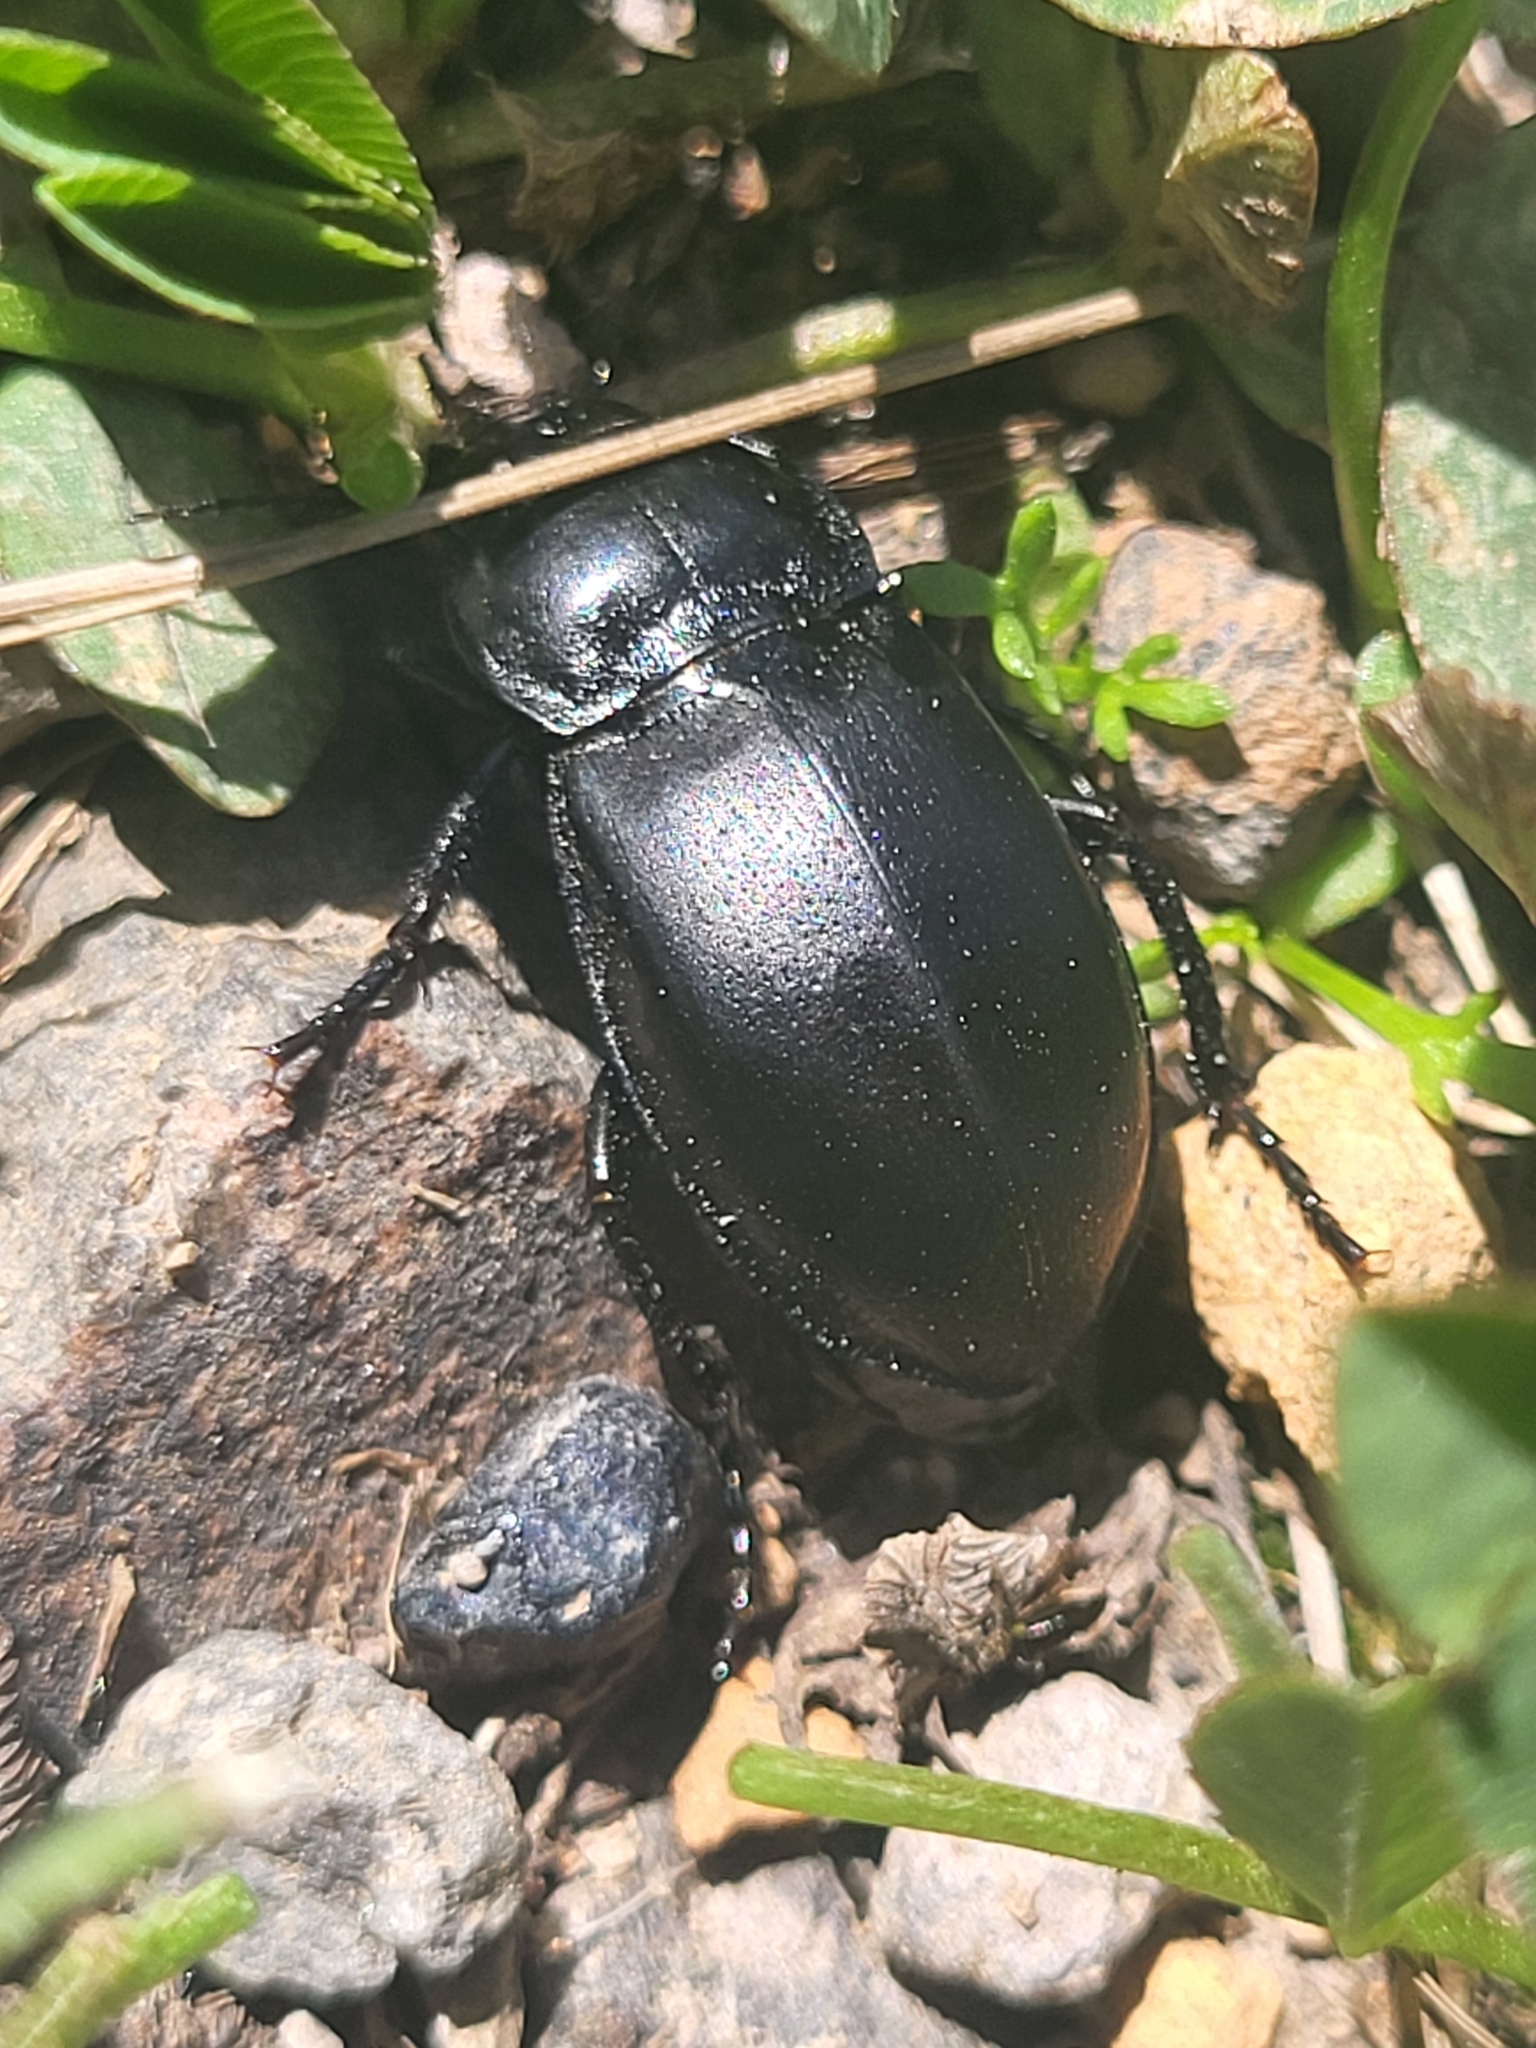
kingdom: Animalia
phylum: Arthropoda
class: Insecta
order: Coleoptera
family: Carabidae
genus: Zabrus
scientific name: Zabrus aurichalceus
